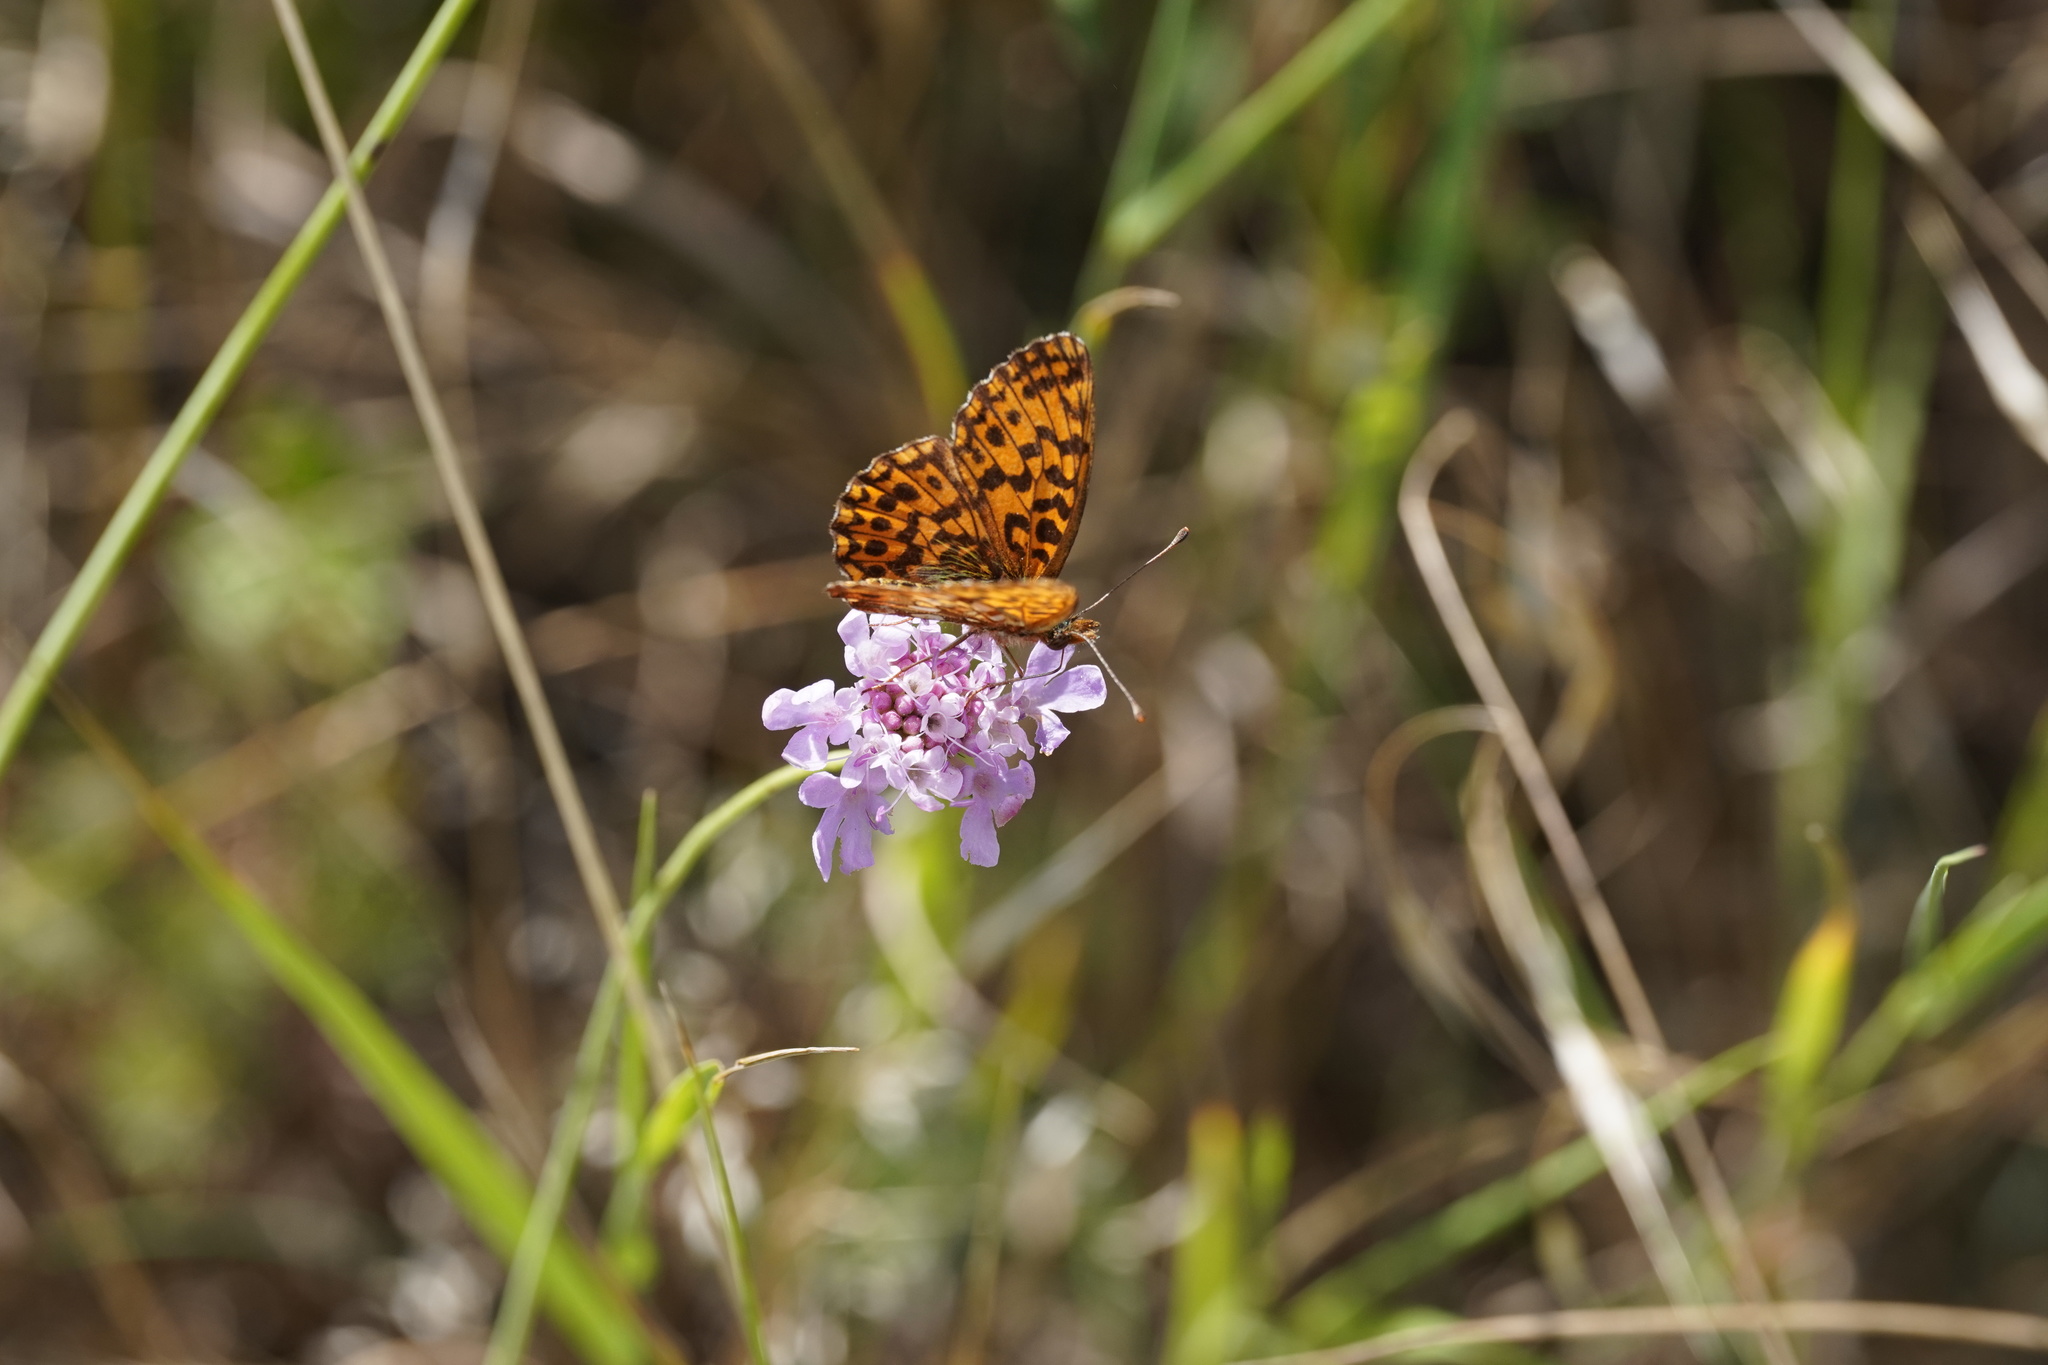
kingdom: Animalia
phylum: Arthropoda
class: Insecta
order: Lepidoptera
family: Nymphalidae
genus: Boloria
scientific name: Boloria dia
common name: Weaver's fritillary
